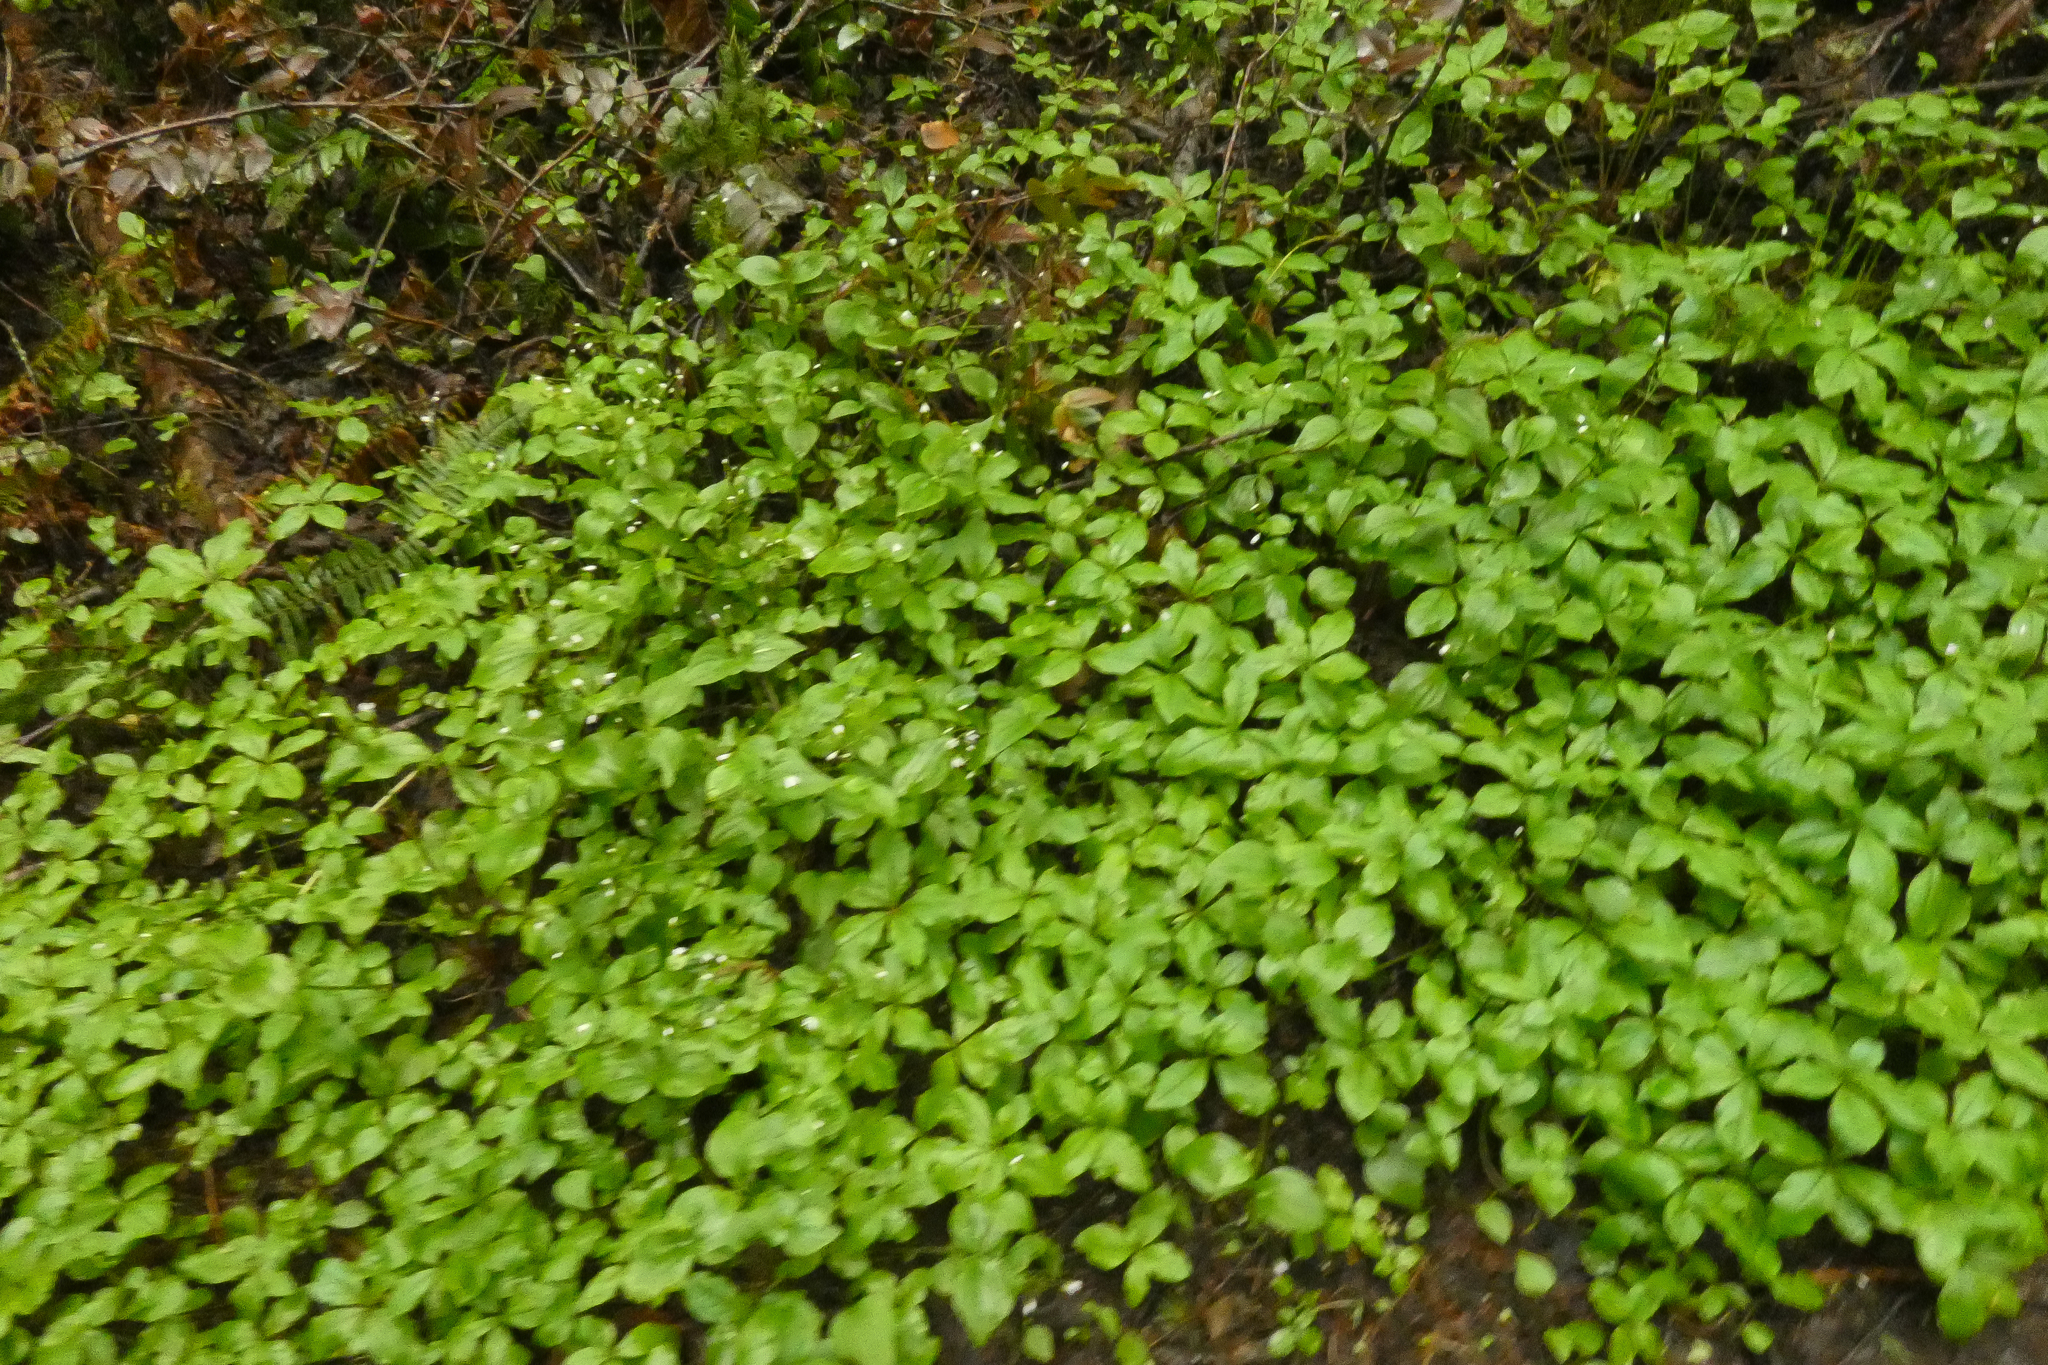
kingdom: Plantae
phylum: Tracheophyta
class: Magnoliopsida
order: Ericales
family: Primulaceae
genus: Lysimachia
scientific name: Lysimachia latifolia
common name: Pacific starflower
